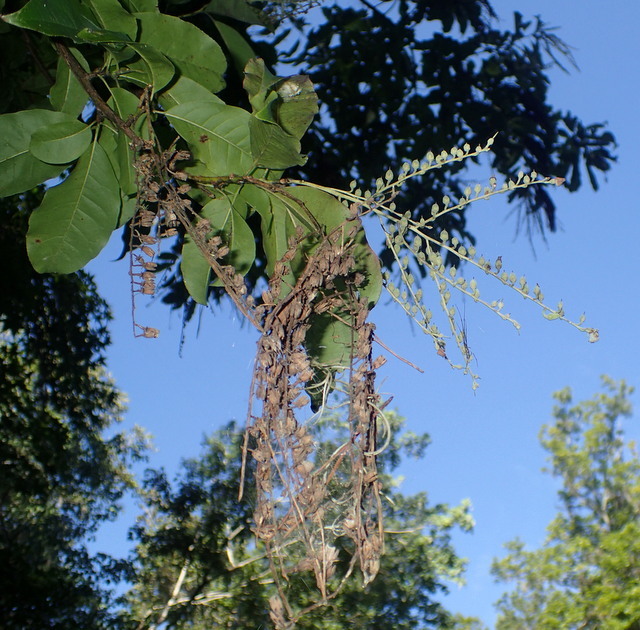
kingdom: Plantae
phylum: Tracheophyta
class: Magnoliopsida
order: Ericales
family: Ericaceae
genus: Oxydendrum
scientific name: Oxydendrum arboreum
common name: Sourwood
